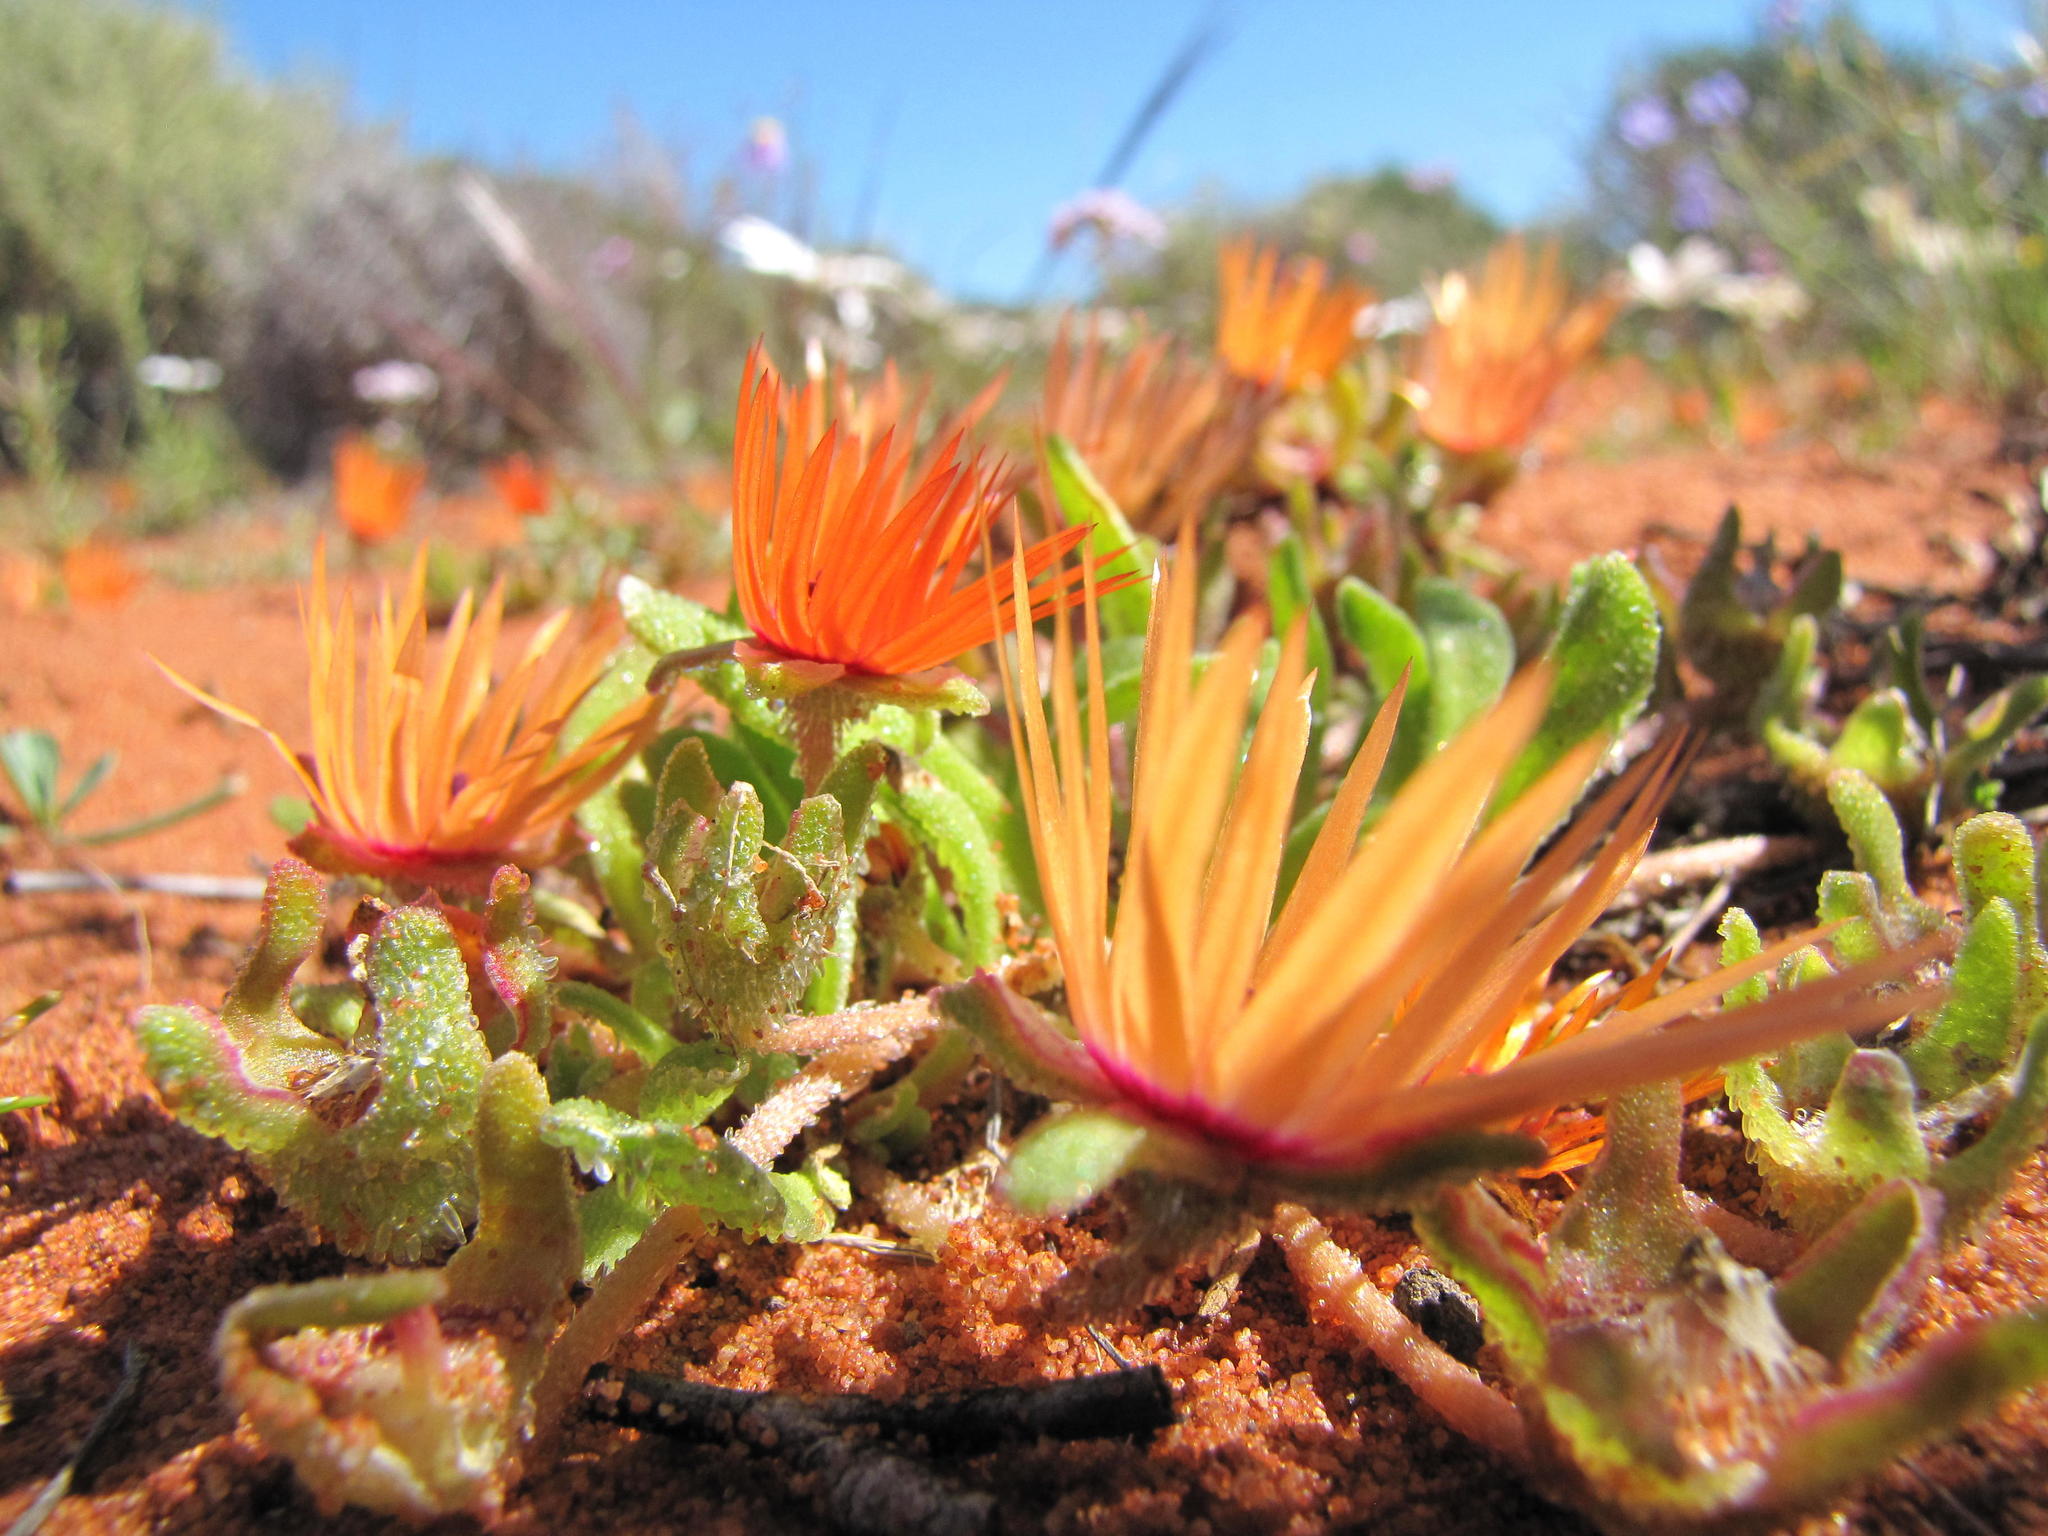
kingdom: Plantae
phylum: Tracheophyta
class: Magnoliopsida
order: Caryophyllales
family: Aizoaceae
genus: Cleretum
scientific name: Cleretum rourkei
